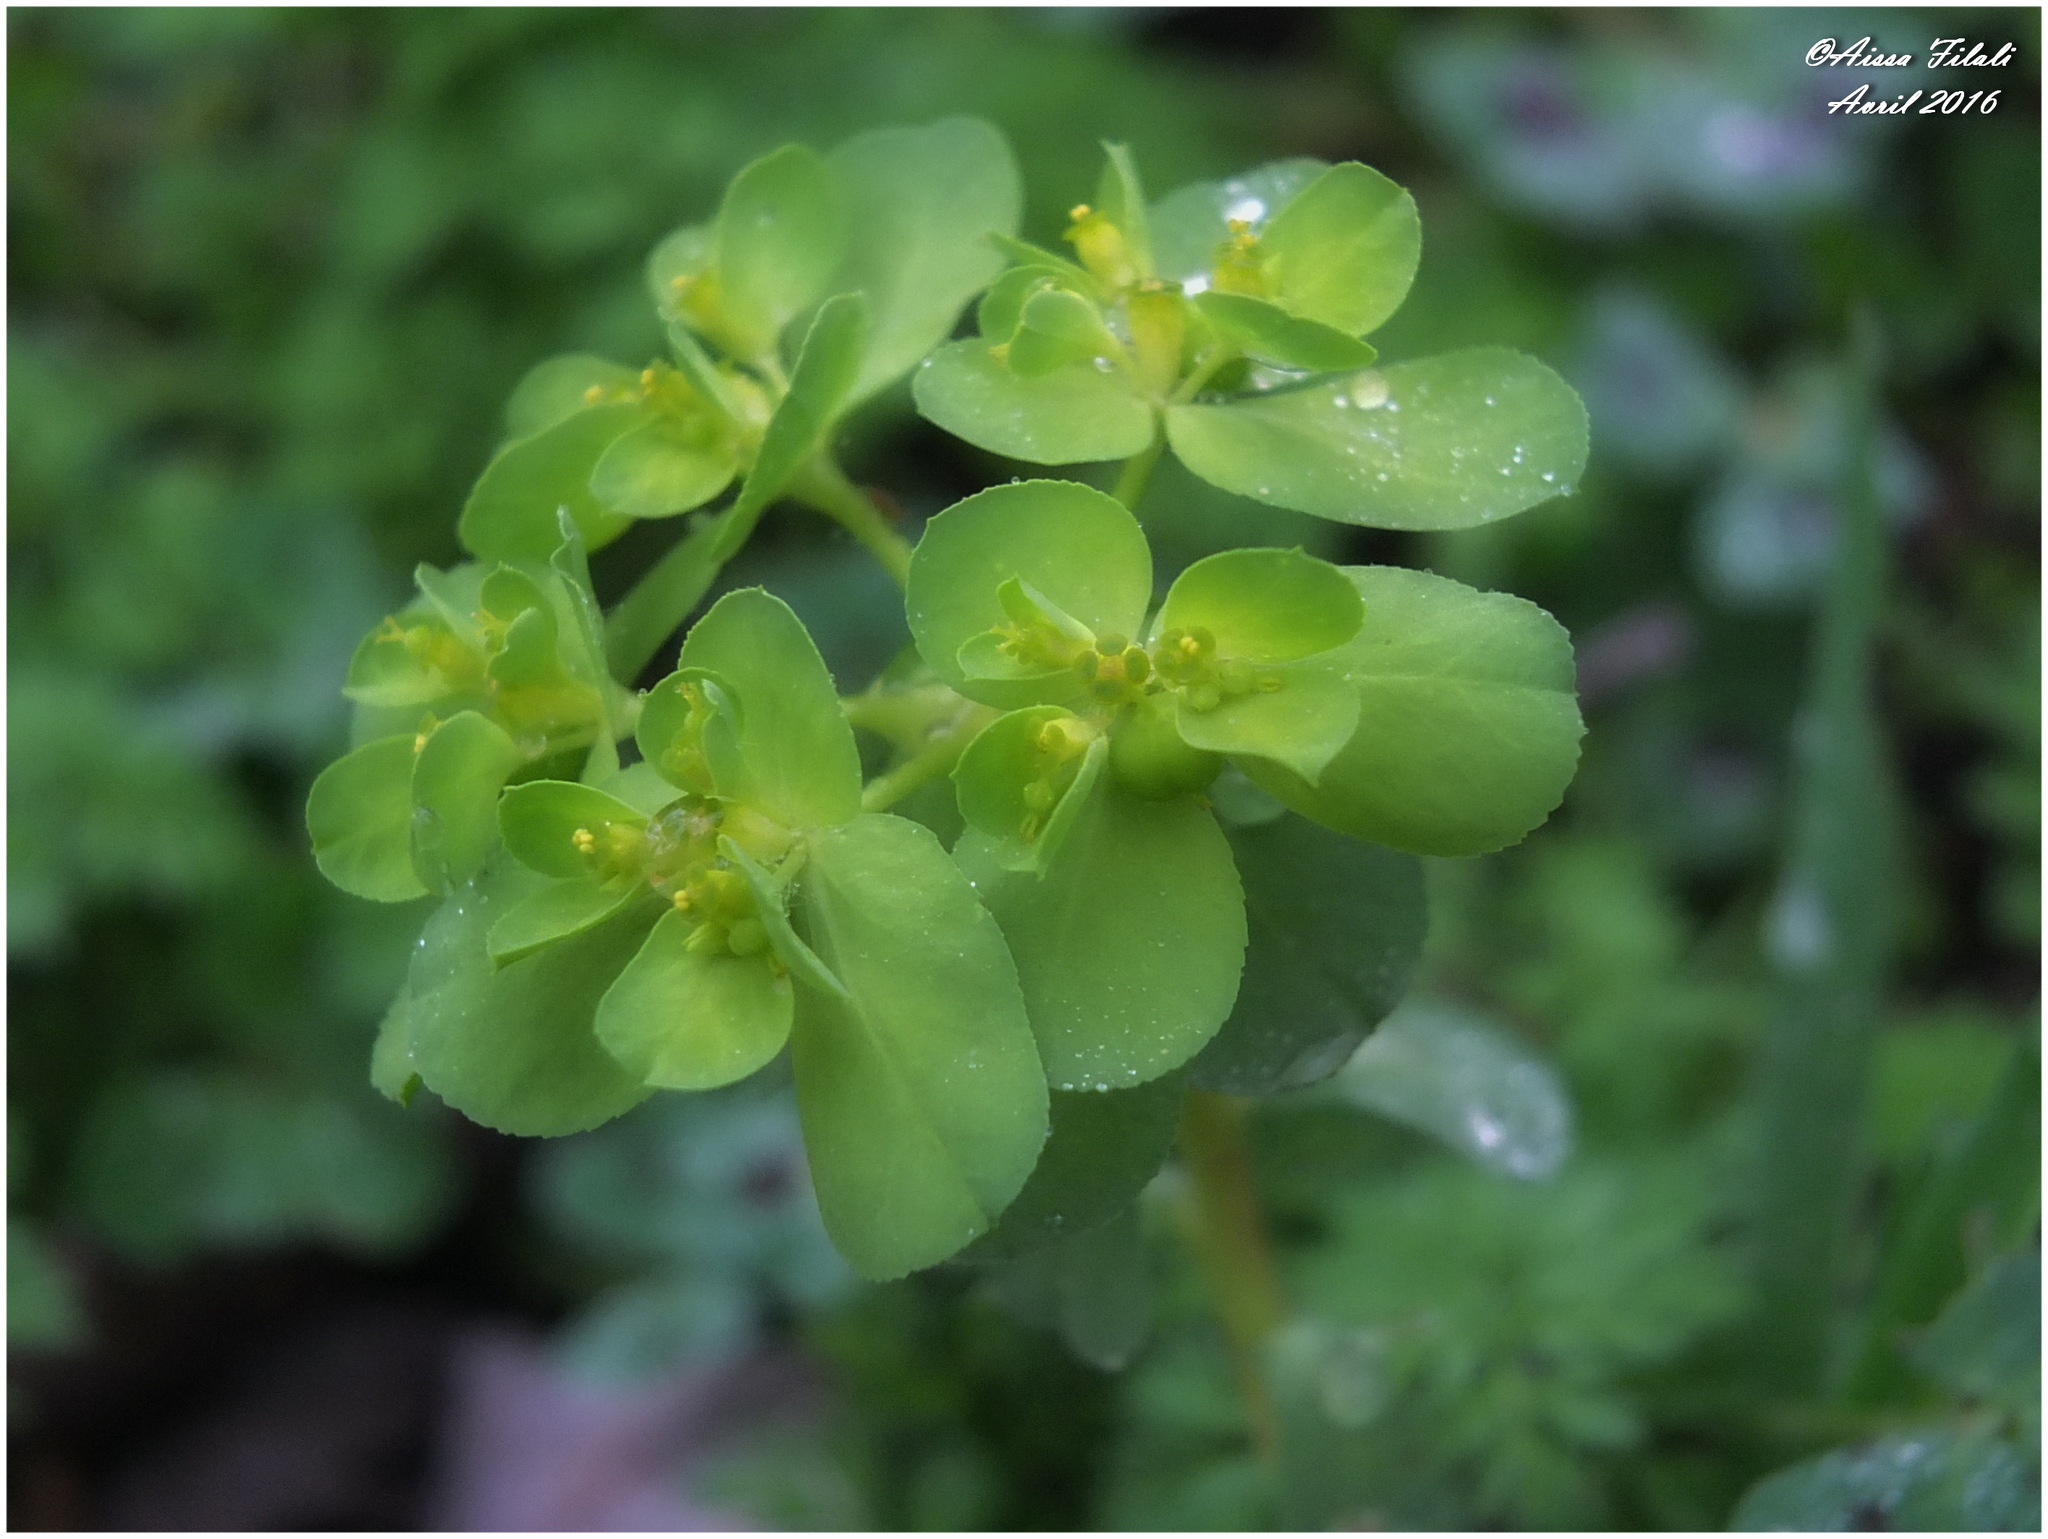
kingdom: Plantae
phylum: Tracheophyta
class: Magnoliopsida
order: Malpighiales
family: Euphorbiaceae
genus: Euphorbia
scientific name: Euphorbia helioscopia
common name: Sun spurge
